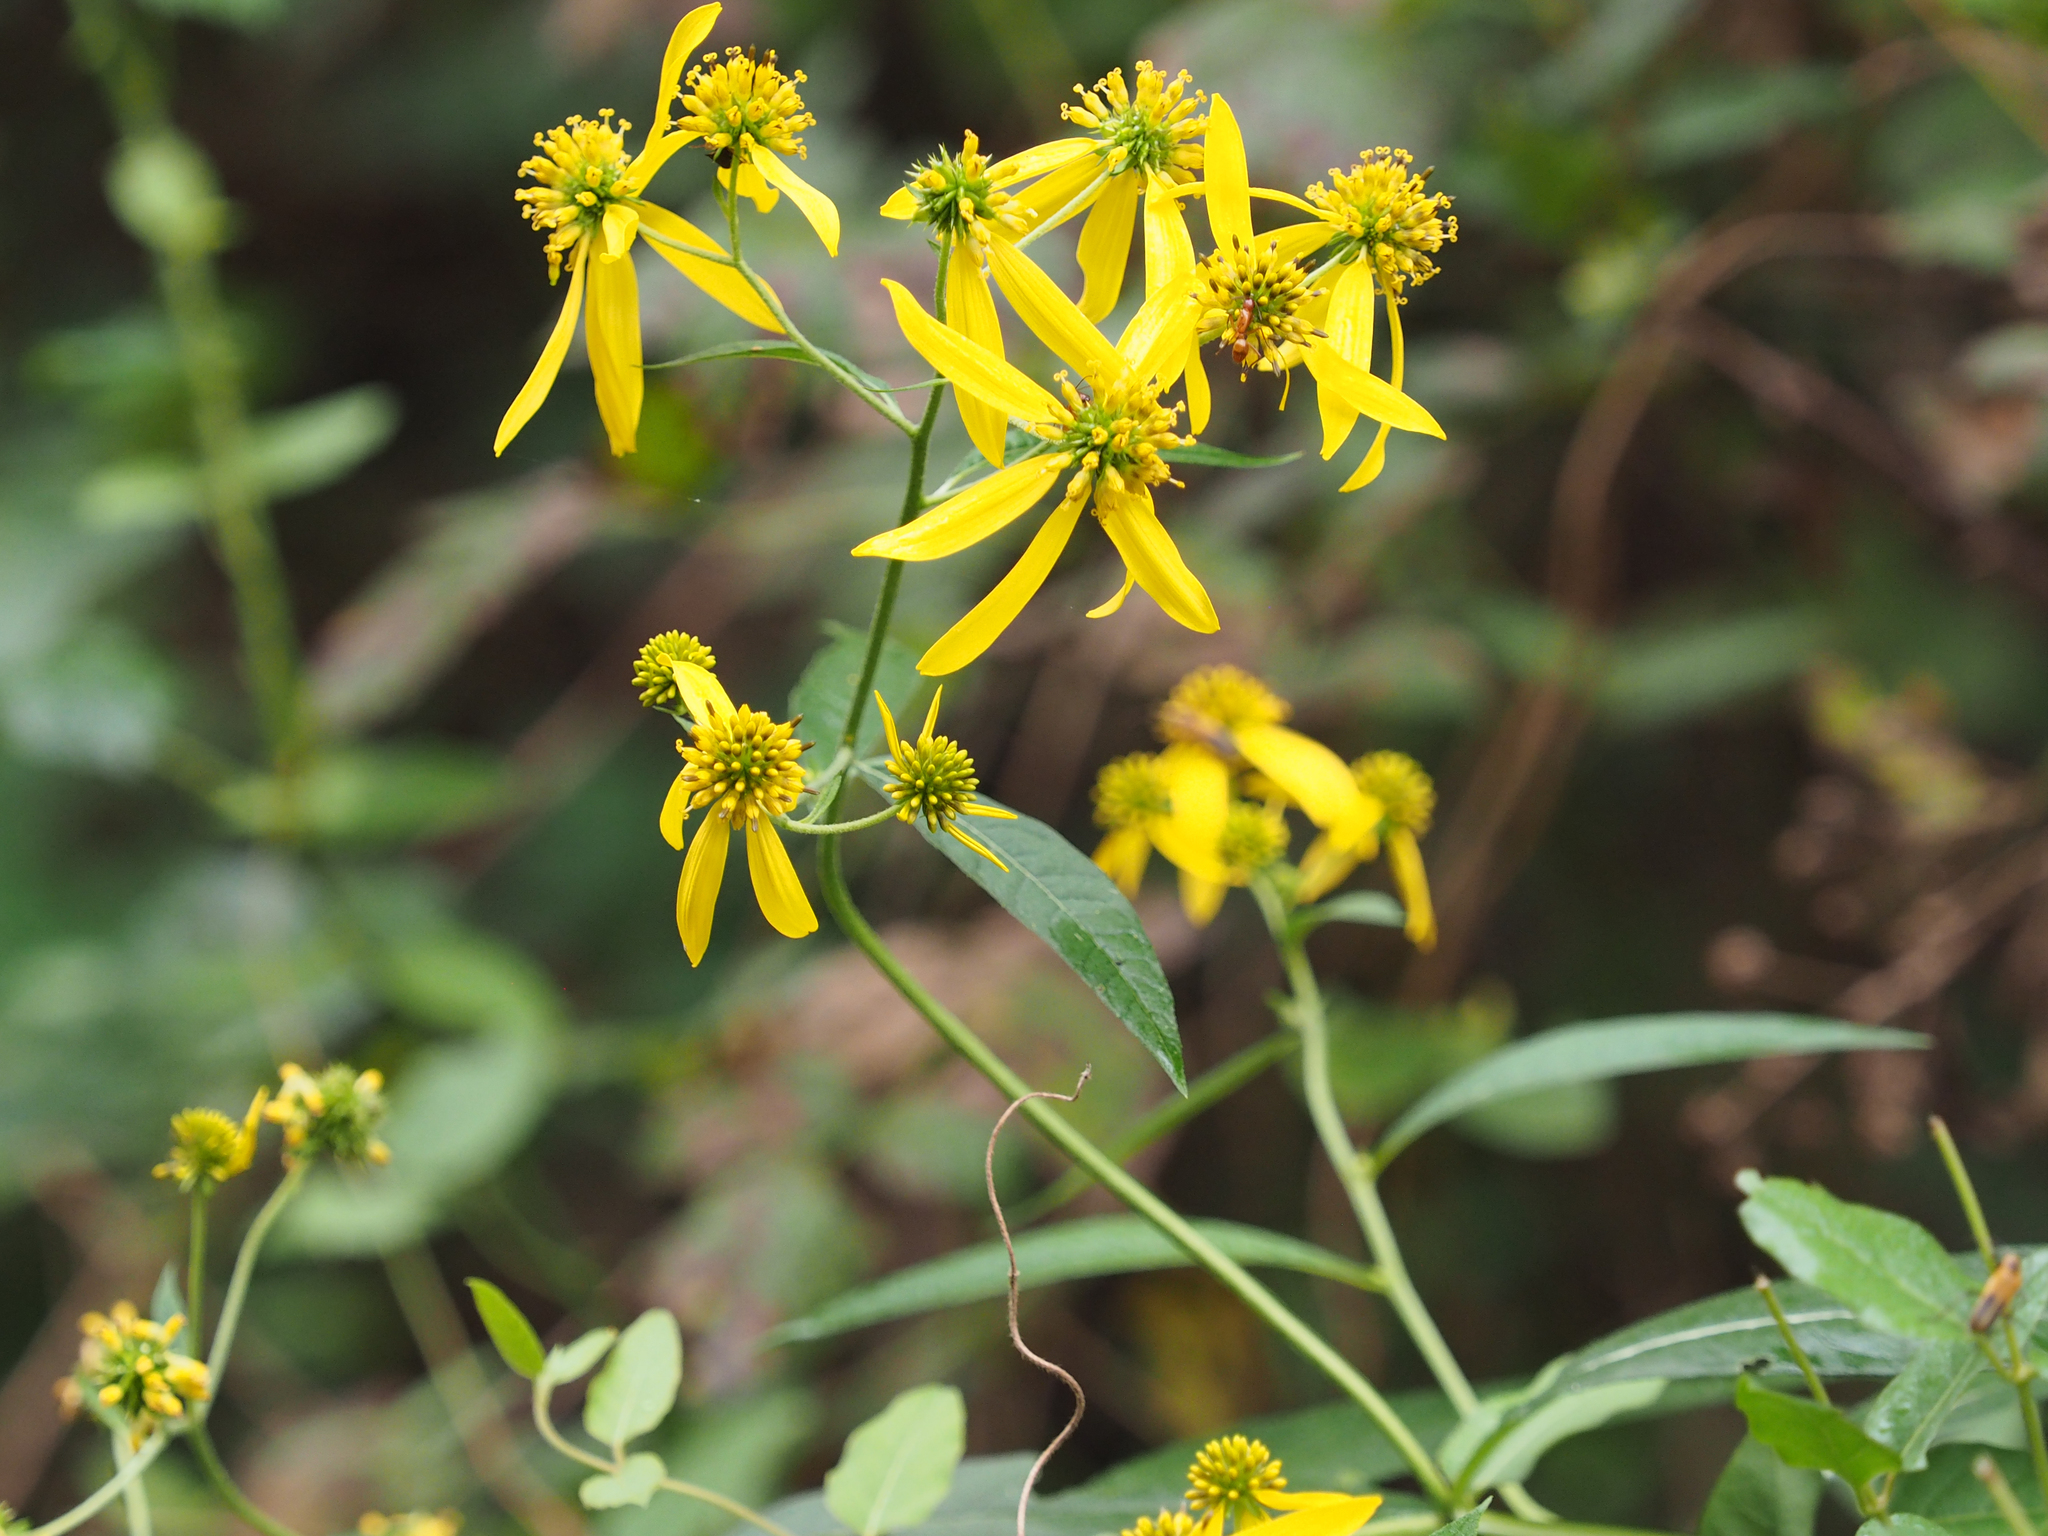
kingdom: Plantae
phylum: Tracheophyta
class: Magnoliopsida
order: Asterales
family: Asteraceae
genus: Verbesina
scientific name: Verbesina alternifolia
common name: Wingstem
